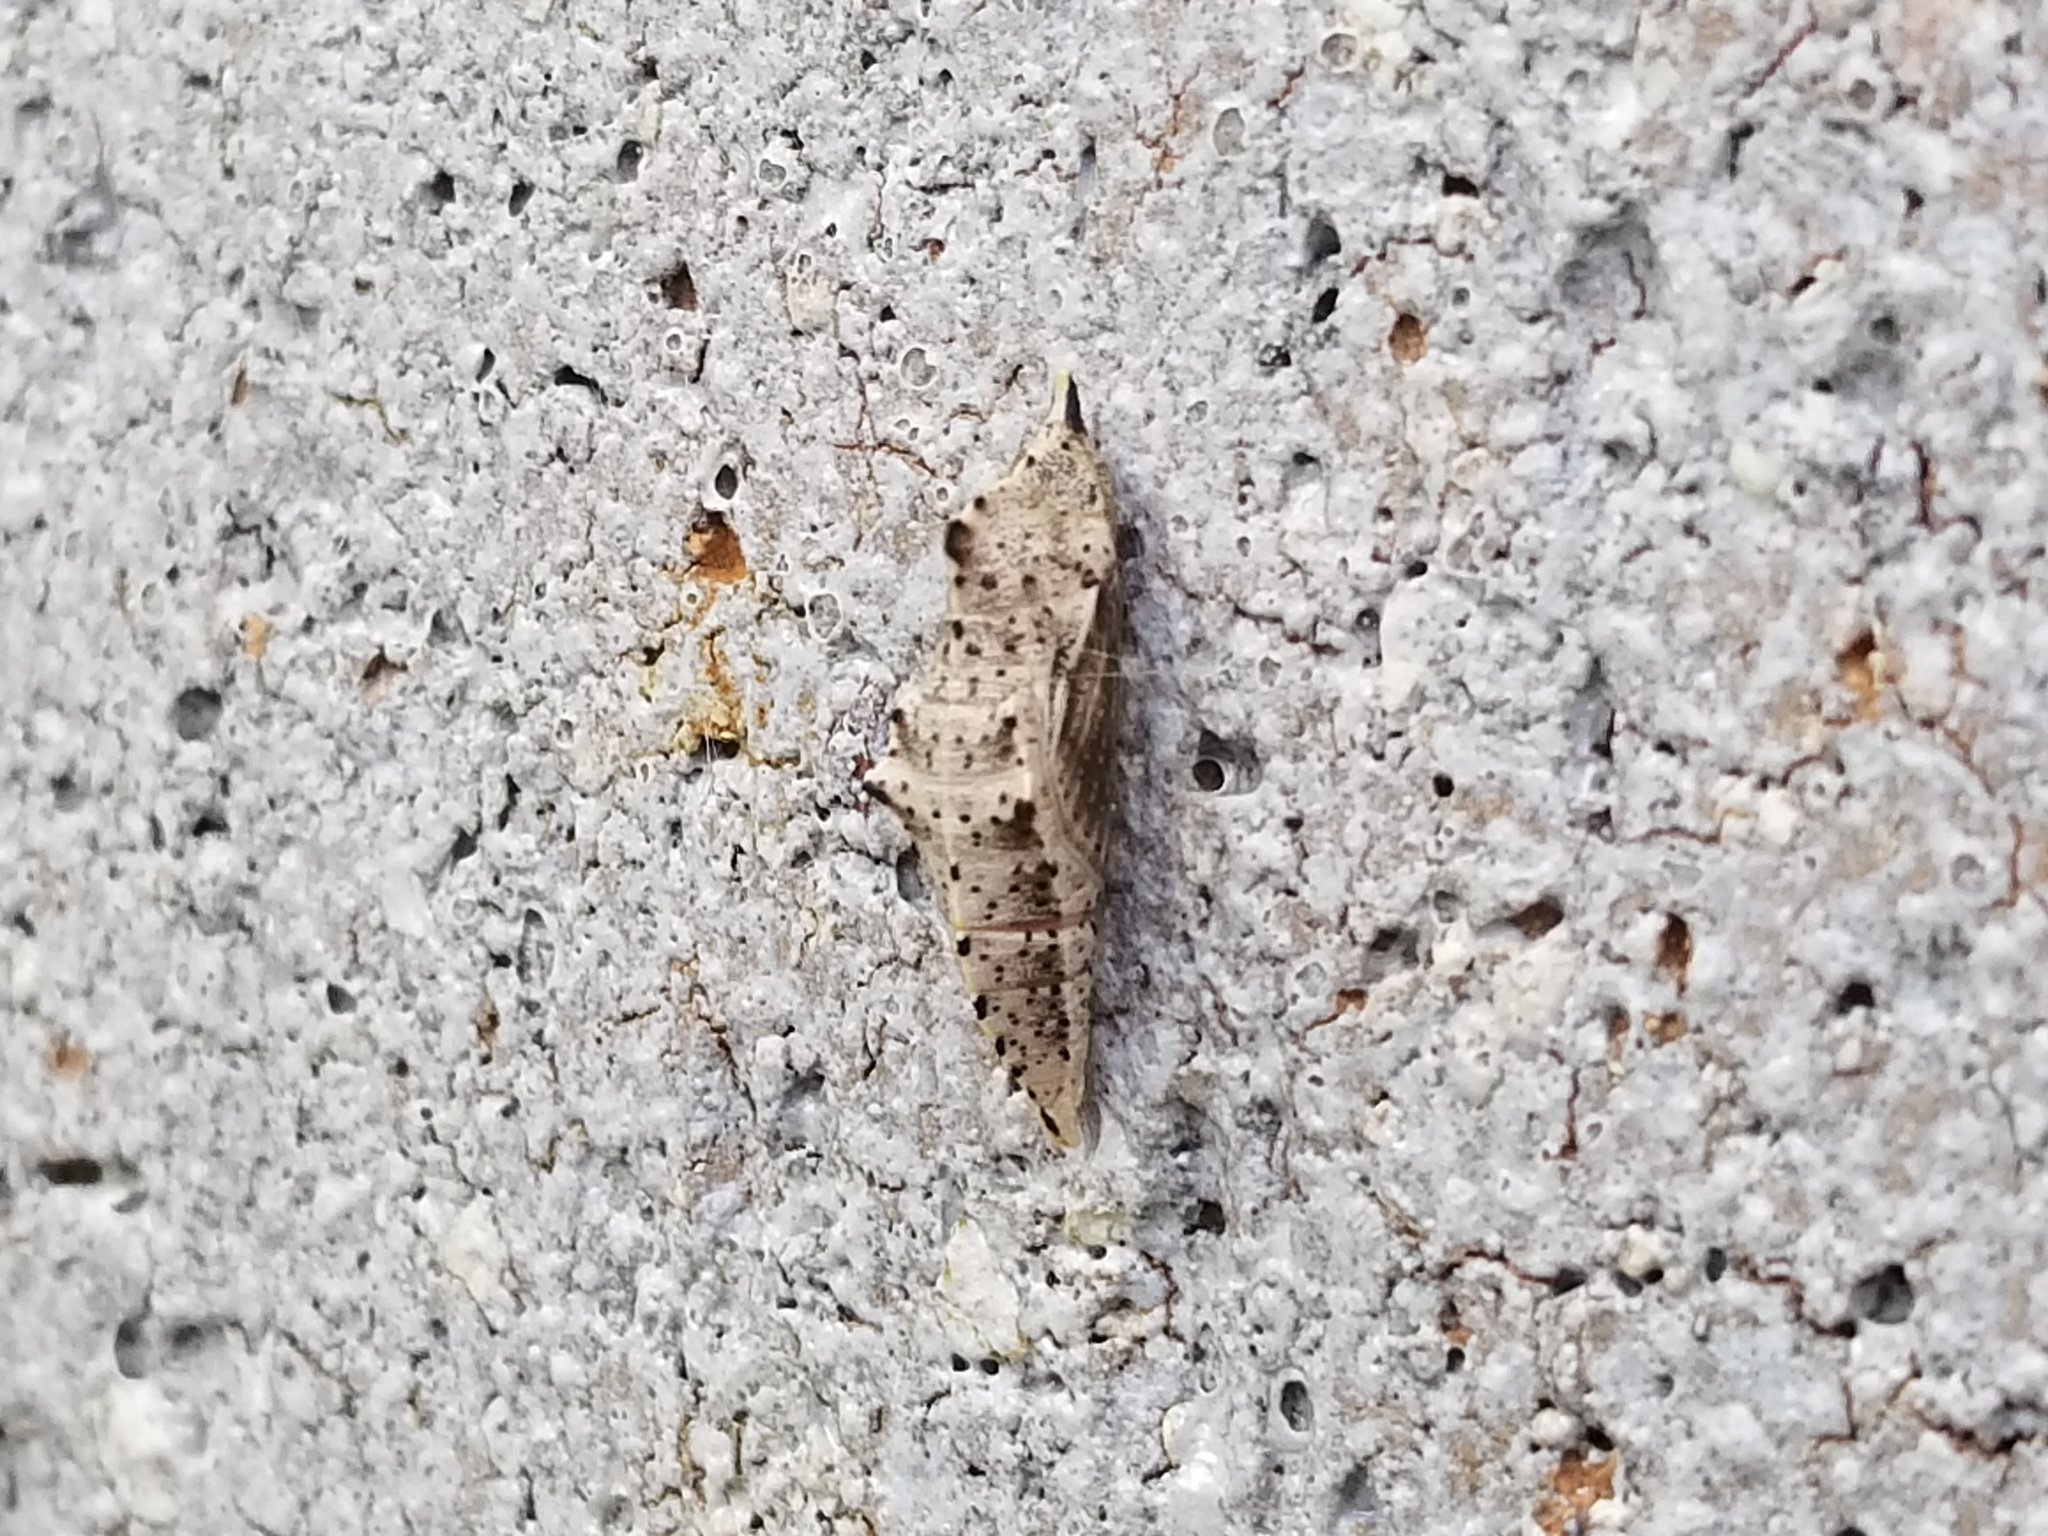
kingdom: Animalia
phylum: Arthropoda
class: Insecta
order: Lepidoptera
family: Pieridae
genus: Pieris
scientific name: Pieris rapae
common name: Small white
